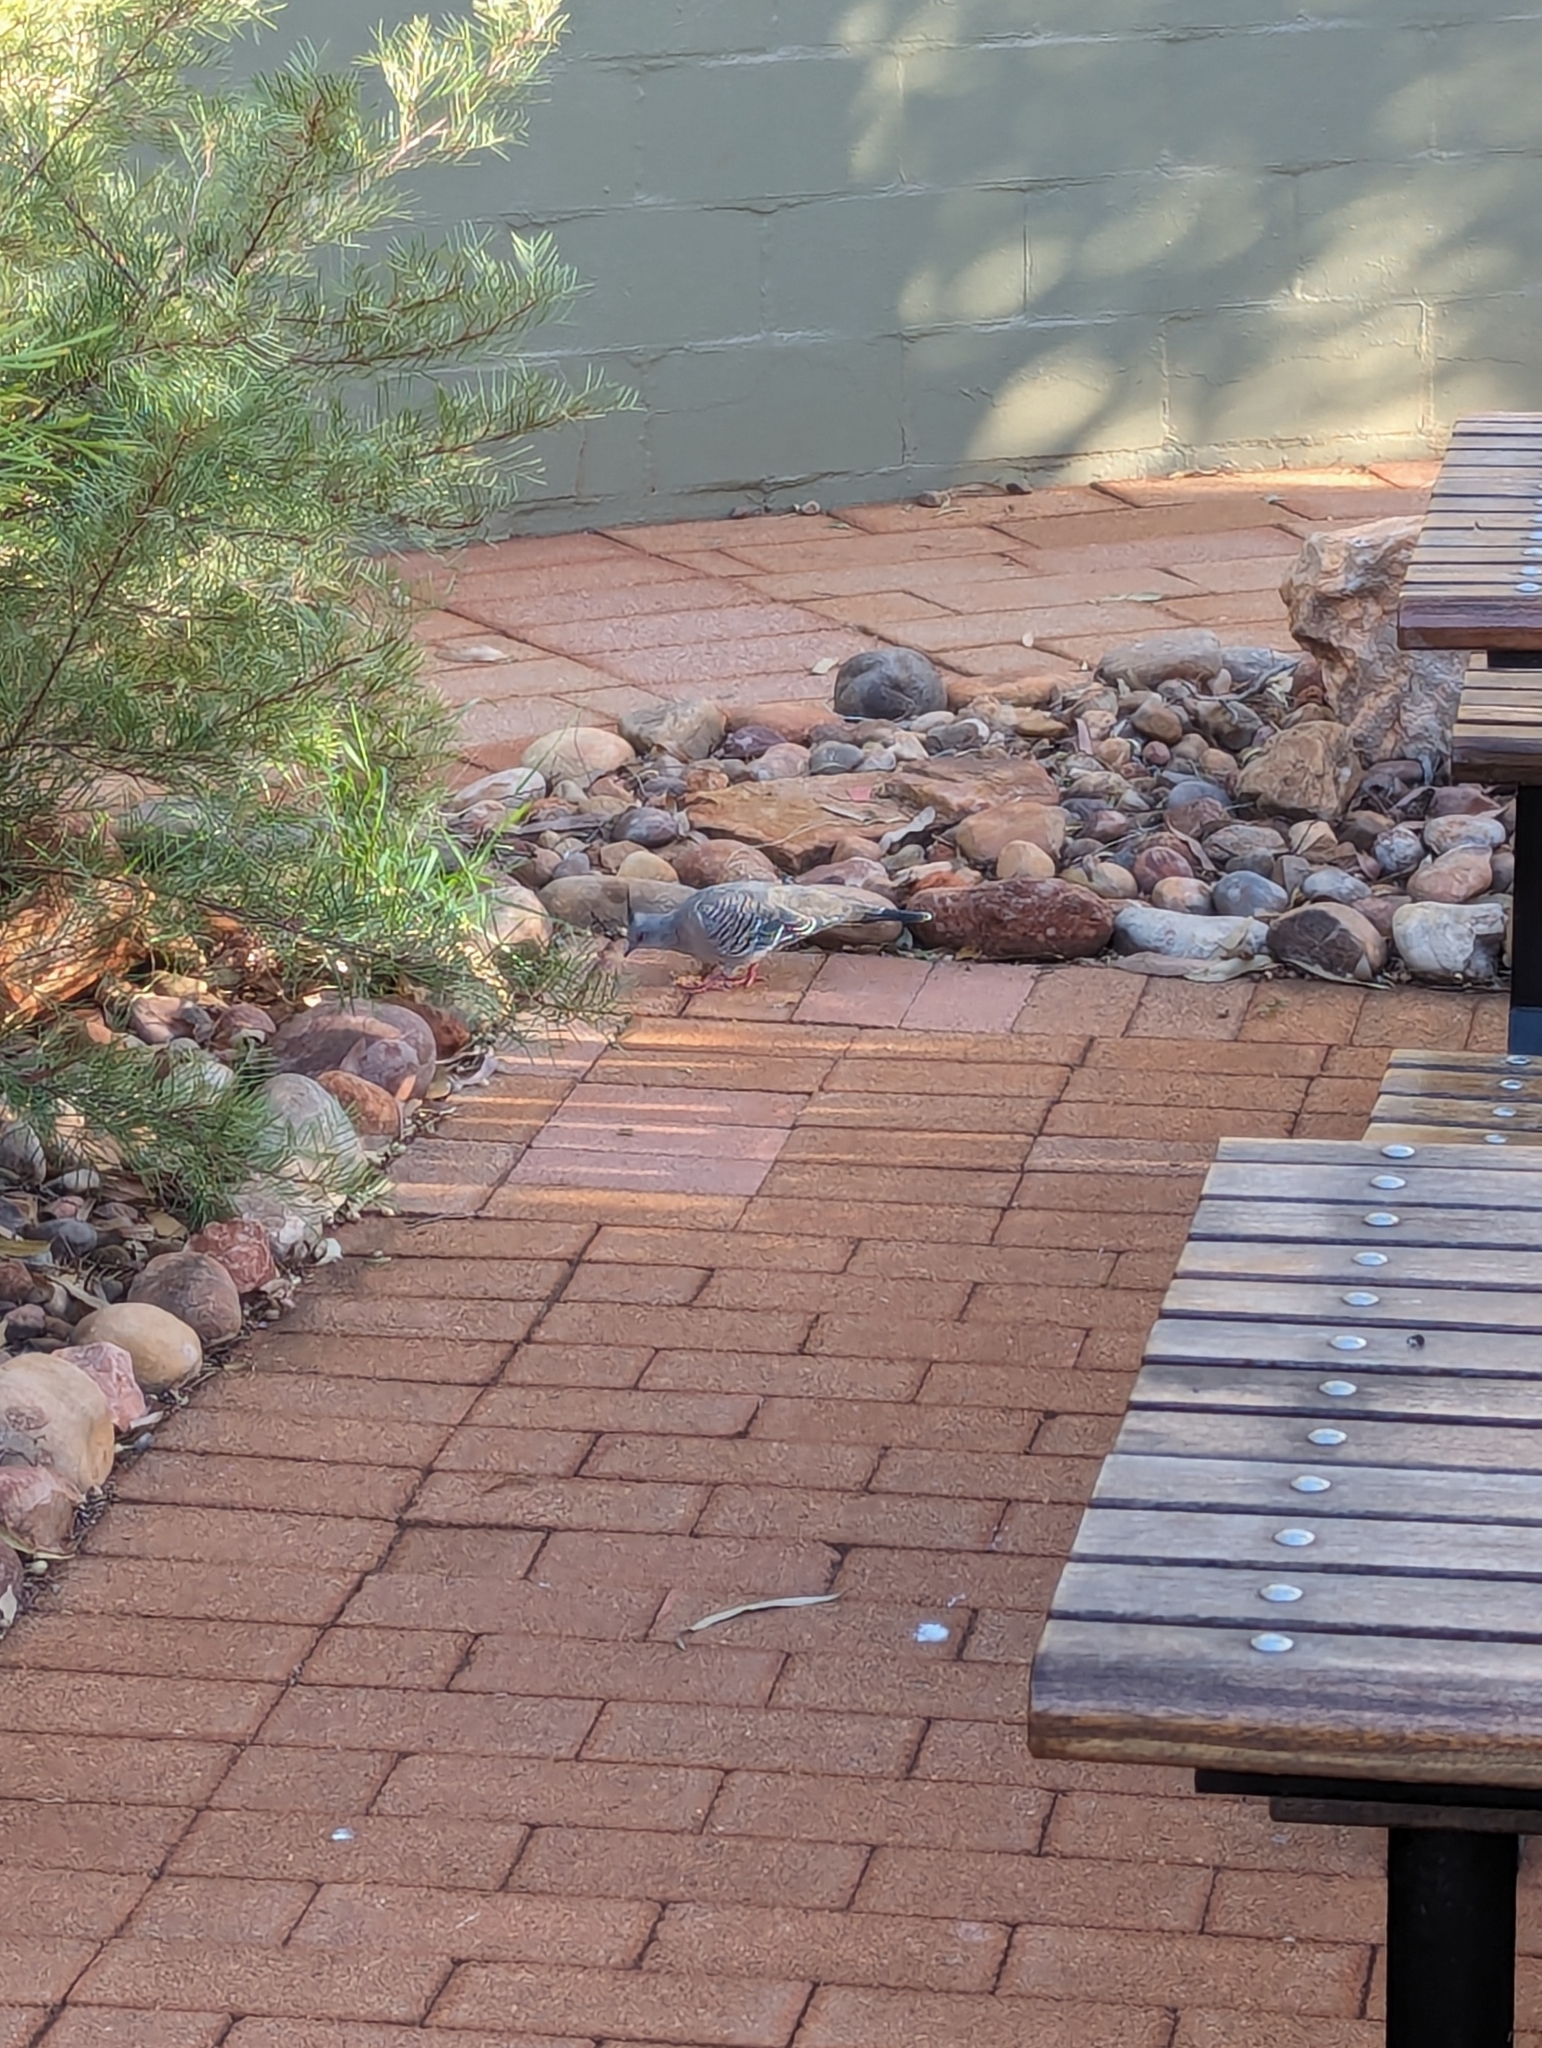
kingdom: Animalia
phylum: Chordata
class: Aves
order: Columbiformes
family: Columbidae
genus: Ocyphaps
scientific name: Ocyphaps lophotes
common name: Crested pigeon
